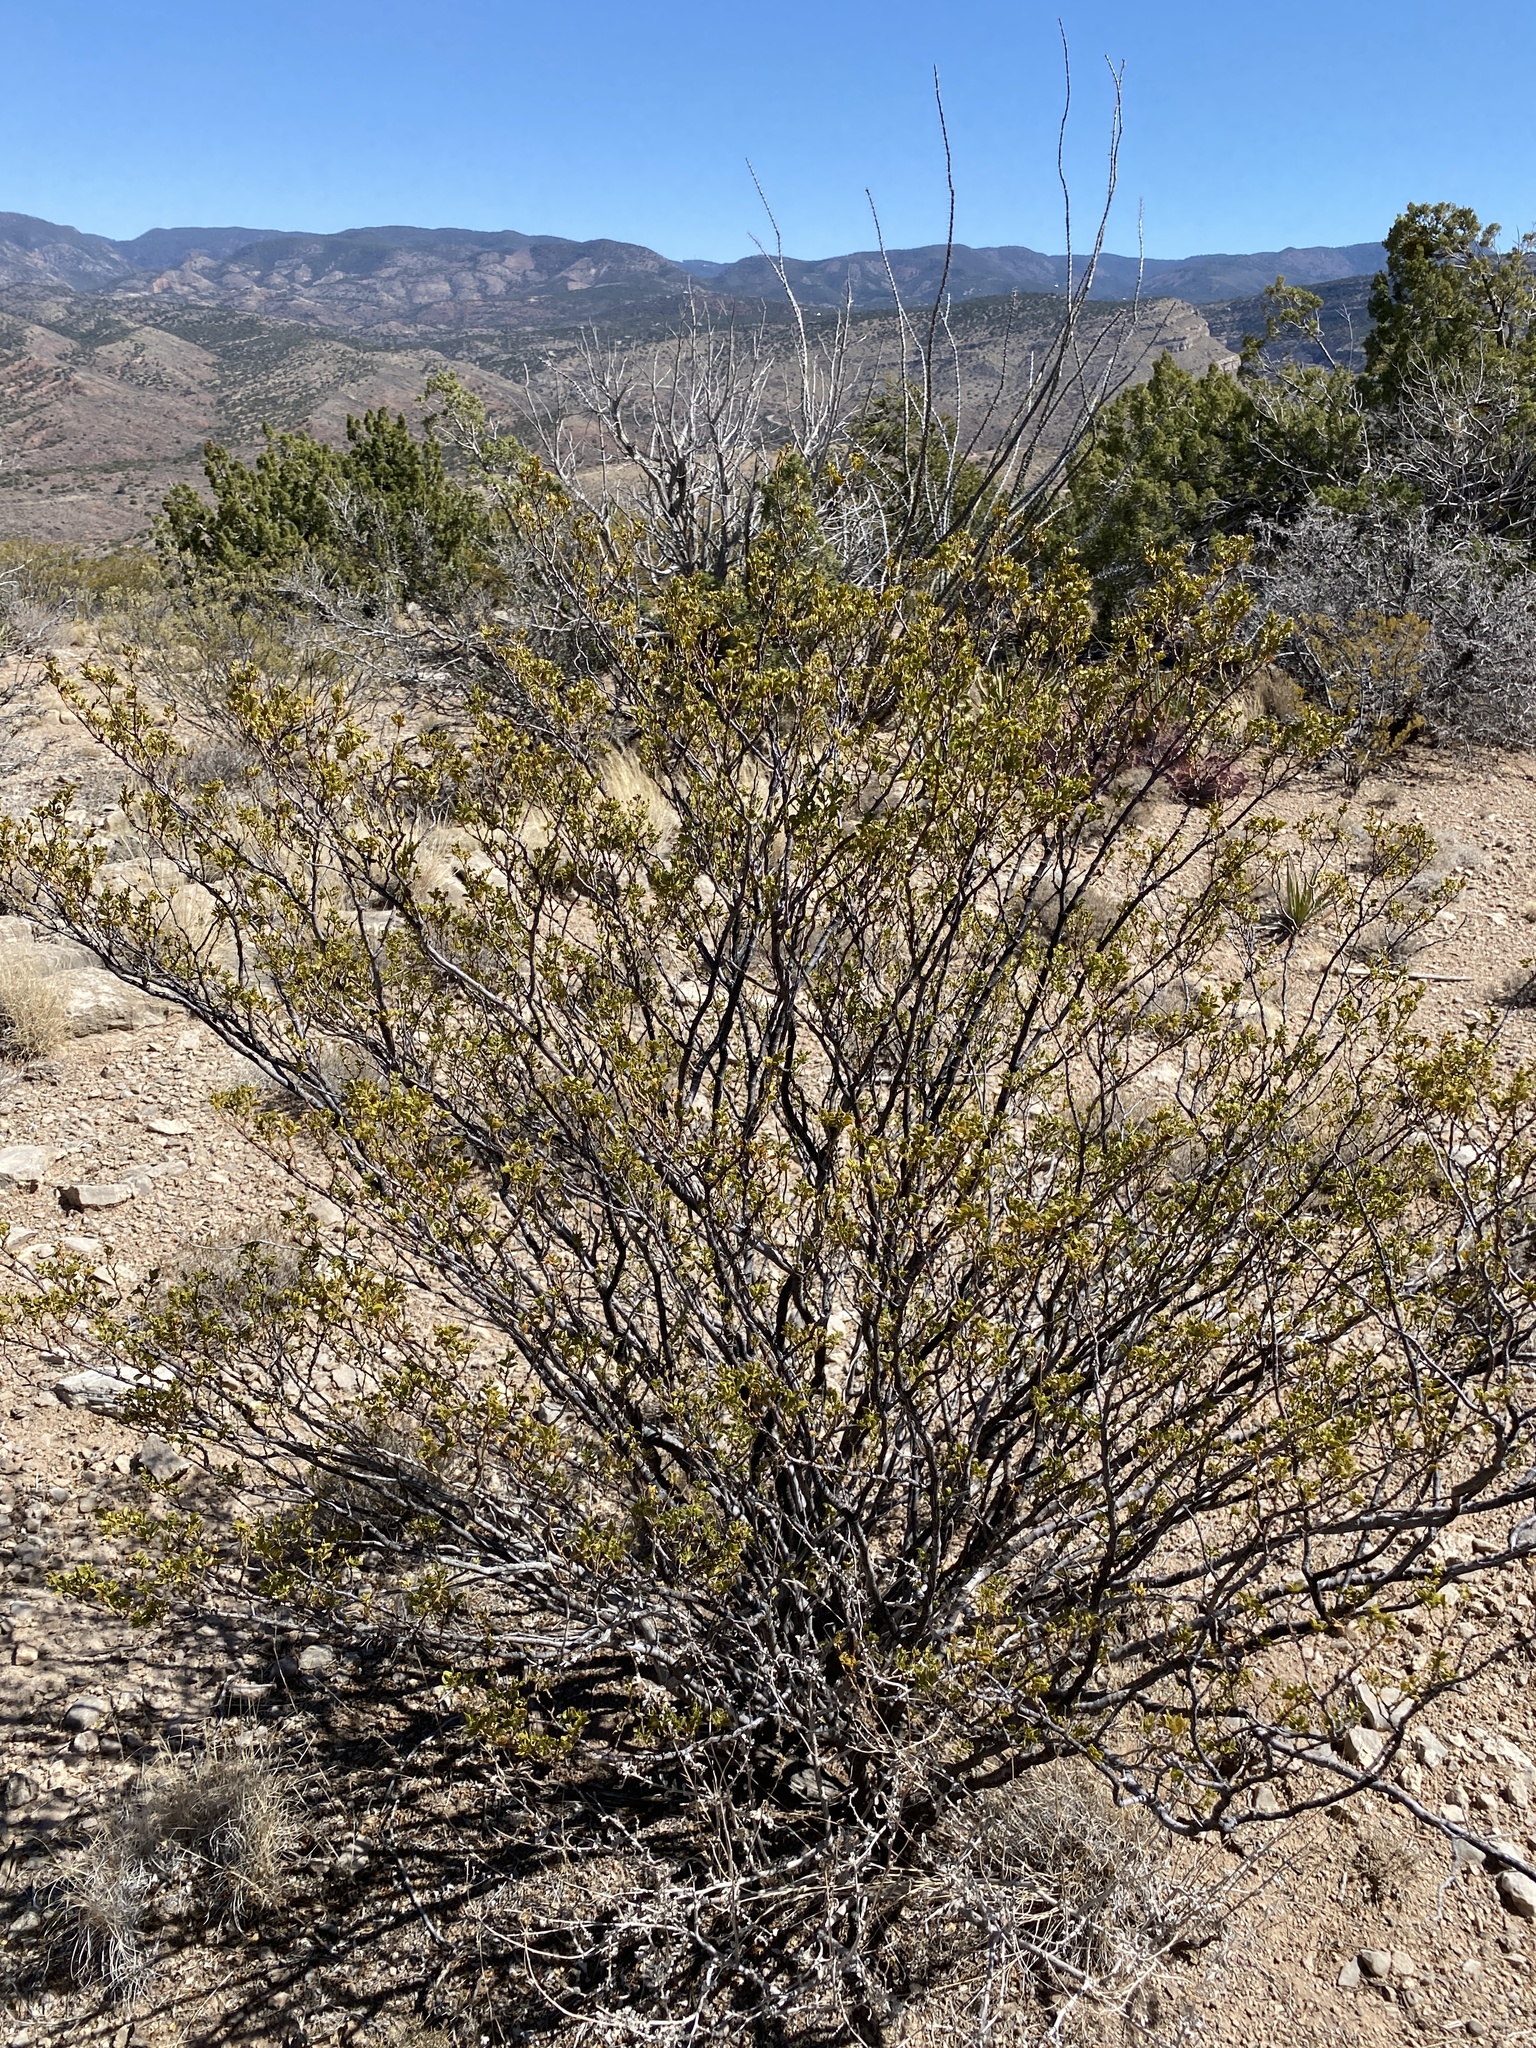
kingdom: Plantae
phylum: Tracheophyta
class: Magnoliopsida
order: Zygophyllales
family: Zygophyllaceae
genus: Larrea
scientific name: Larrea tridentata
